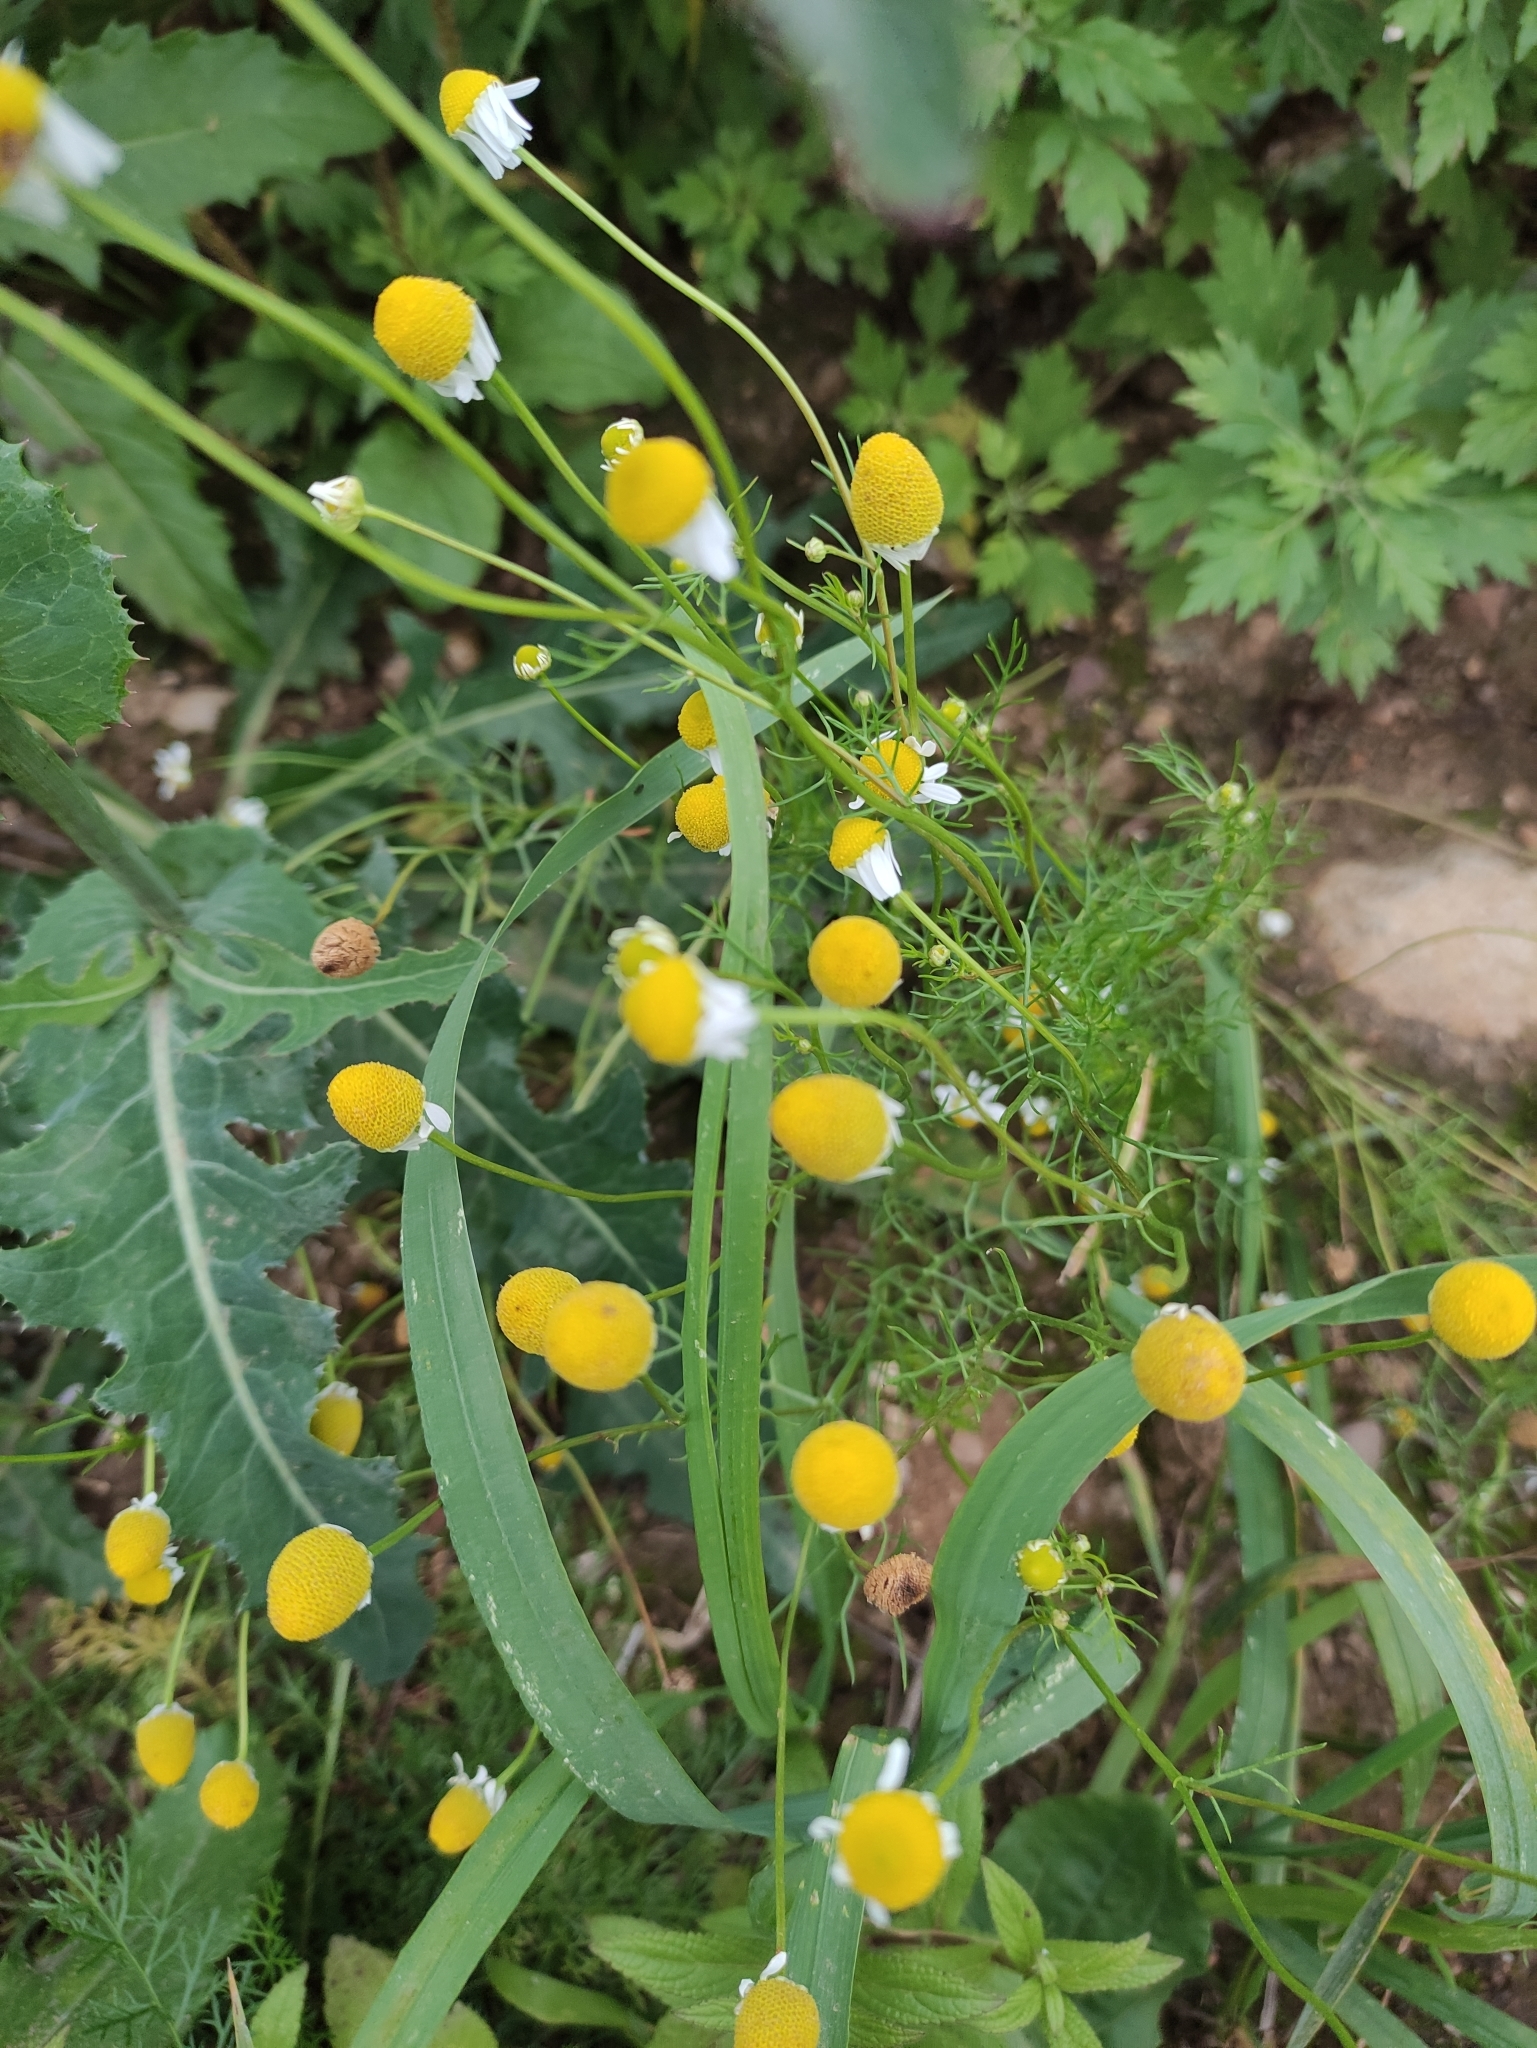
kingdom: Plantae
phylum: Tracheophyta
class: Magnoliopsida
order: Asterales
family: Asteraceae
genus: Tripleurospermum
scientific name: Tripleurospermum inodorum
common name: Scentless mayweed
